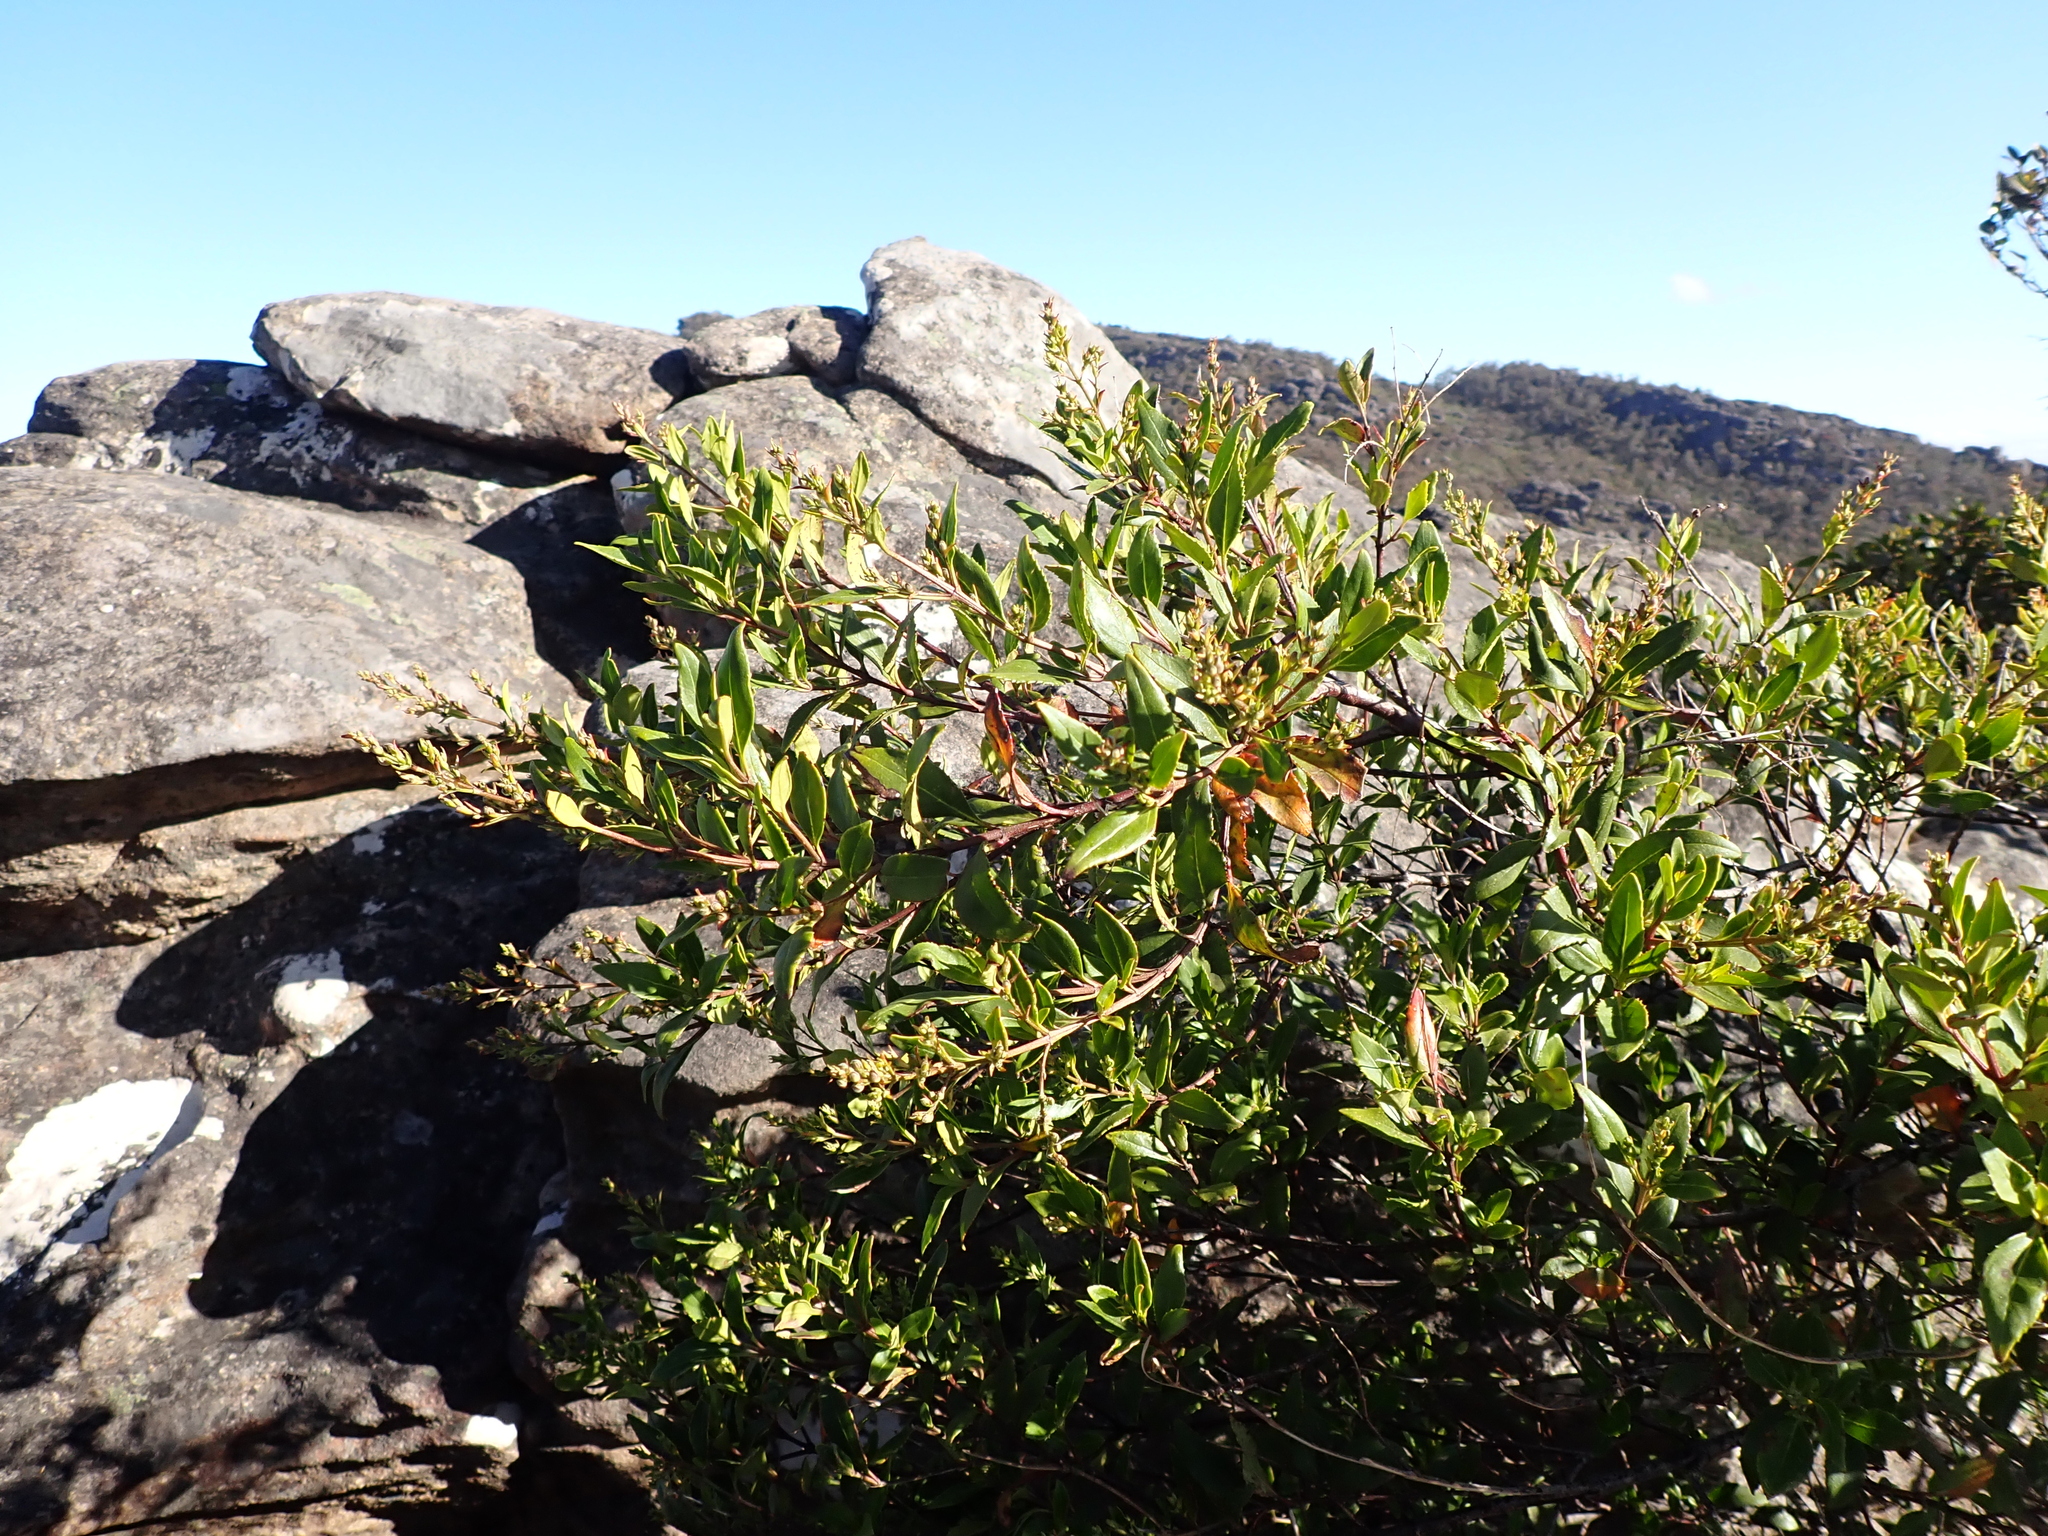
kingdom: Plantae
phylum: Tracheophyta
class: Magnoliopsida
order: Lamiales
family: Lamiaceae
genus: Prostanthera
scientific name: Prostanthera lasianthos
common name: Mountain-lilac
